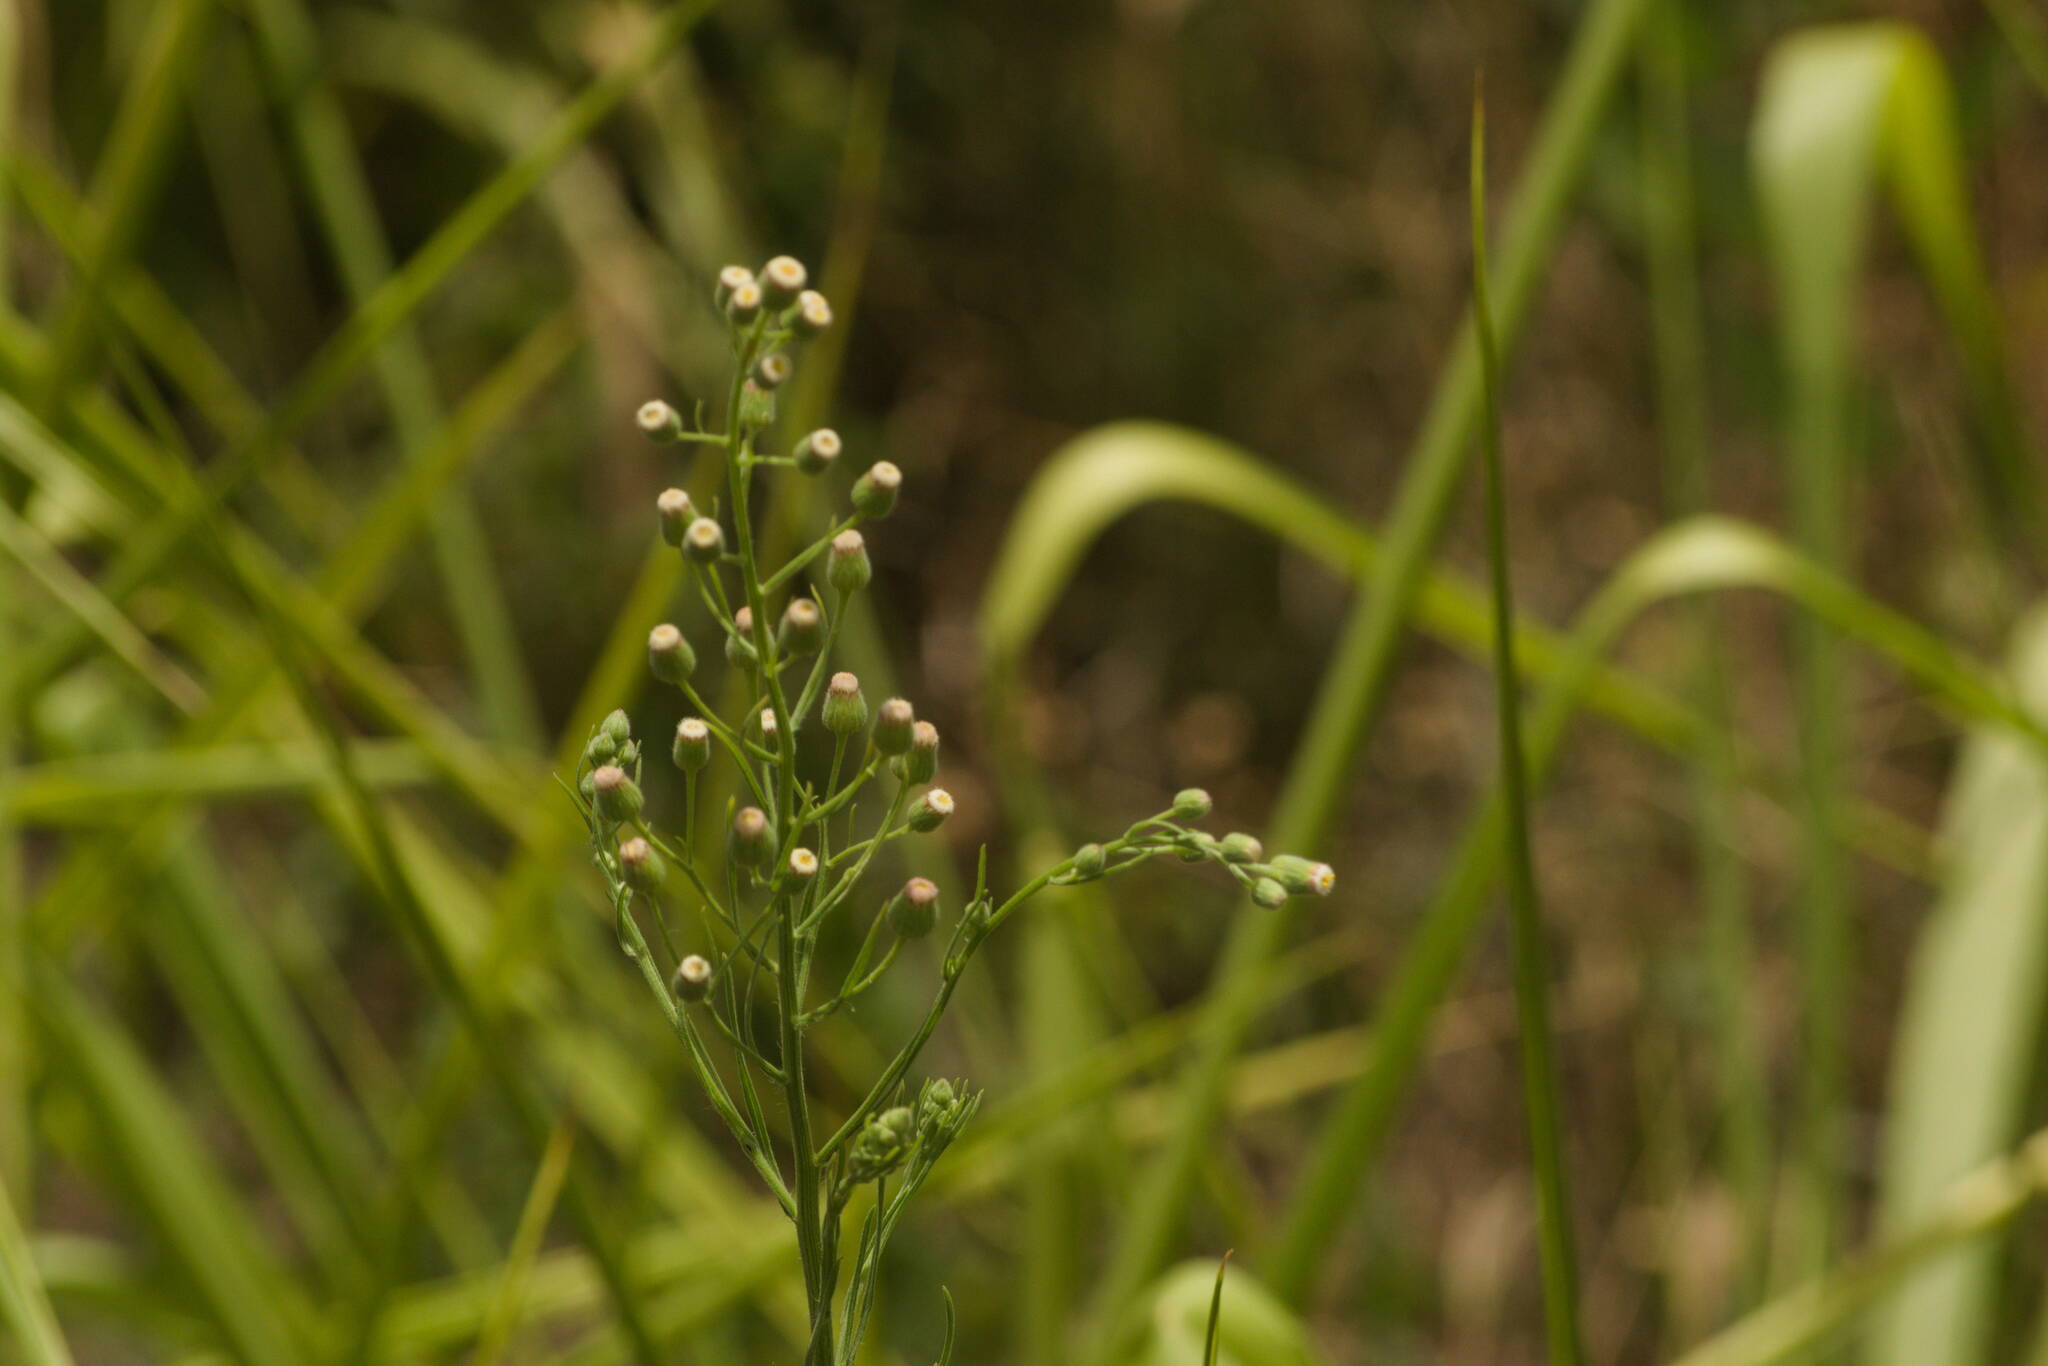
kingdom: Plantae
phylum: Tracheophyta
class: Magnoliopsida
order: Asterales
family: Asteraceae
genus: Erigeron
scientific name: Erigeron bonariensis
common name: Argentine fleabane
